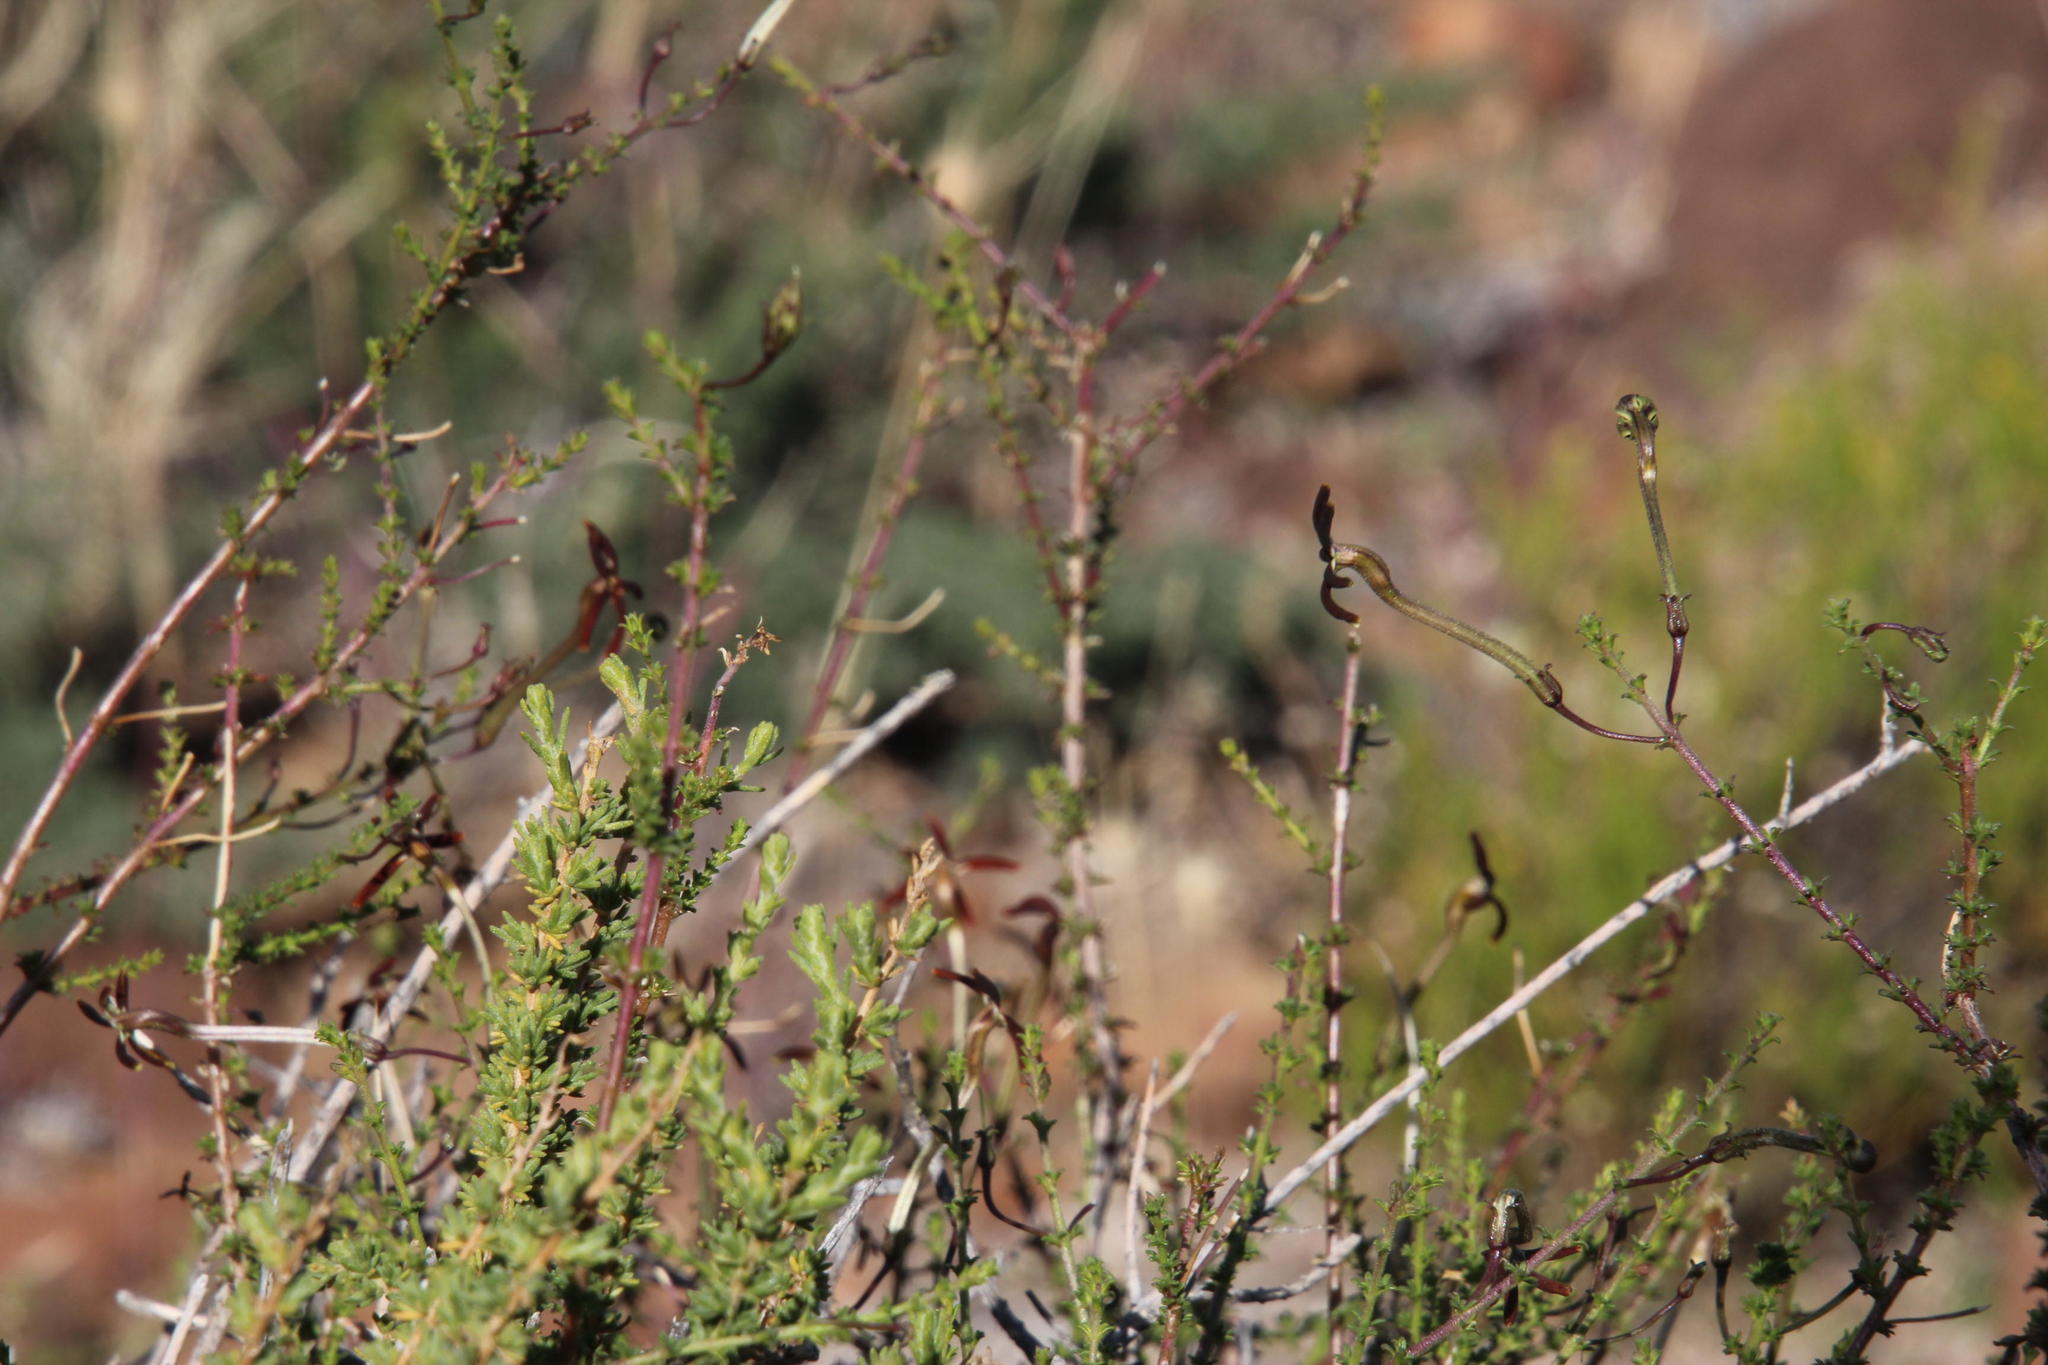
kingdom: Plantae
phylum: Tracheophyta
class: Magnoliopsida
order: Lamiales
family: Scrophulariaceae
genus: Jamesbrittenia
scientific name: Jamesbrittenia atropurpurea
